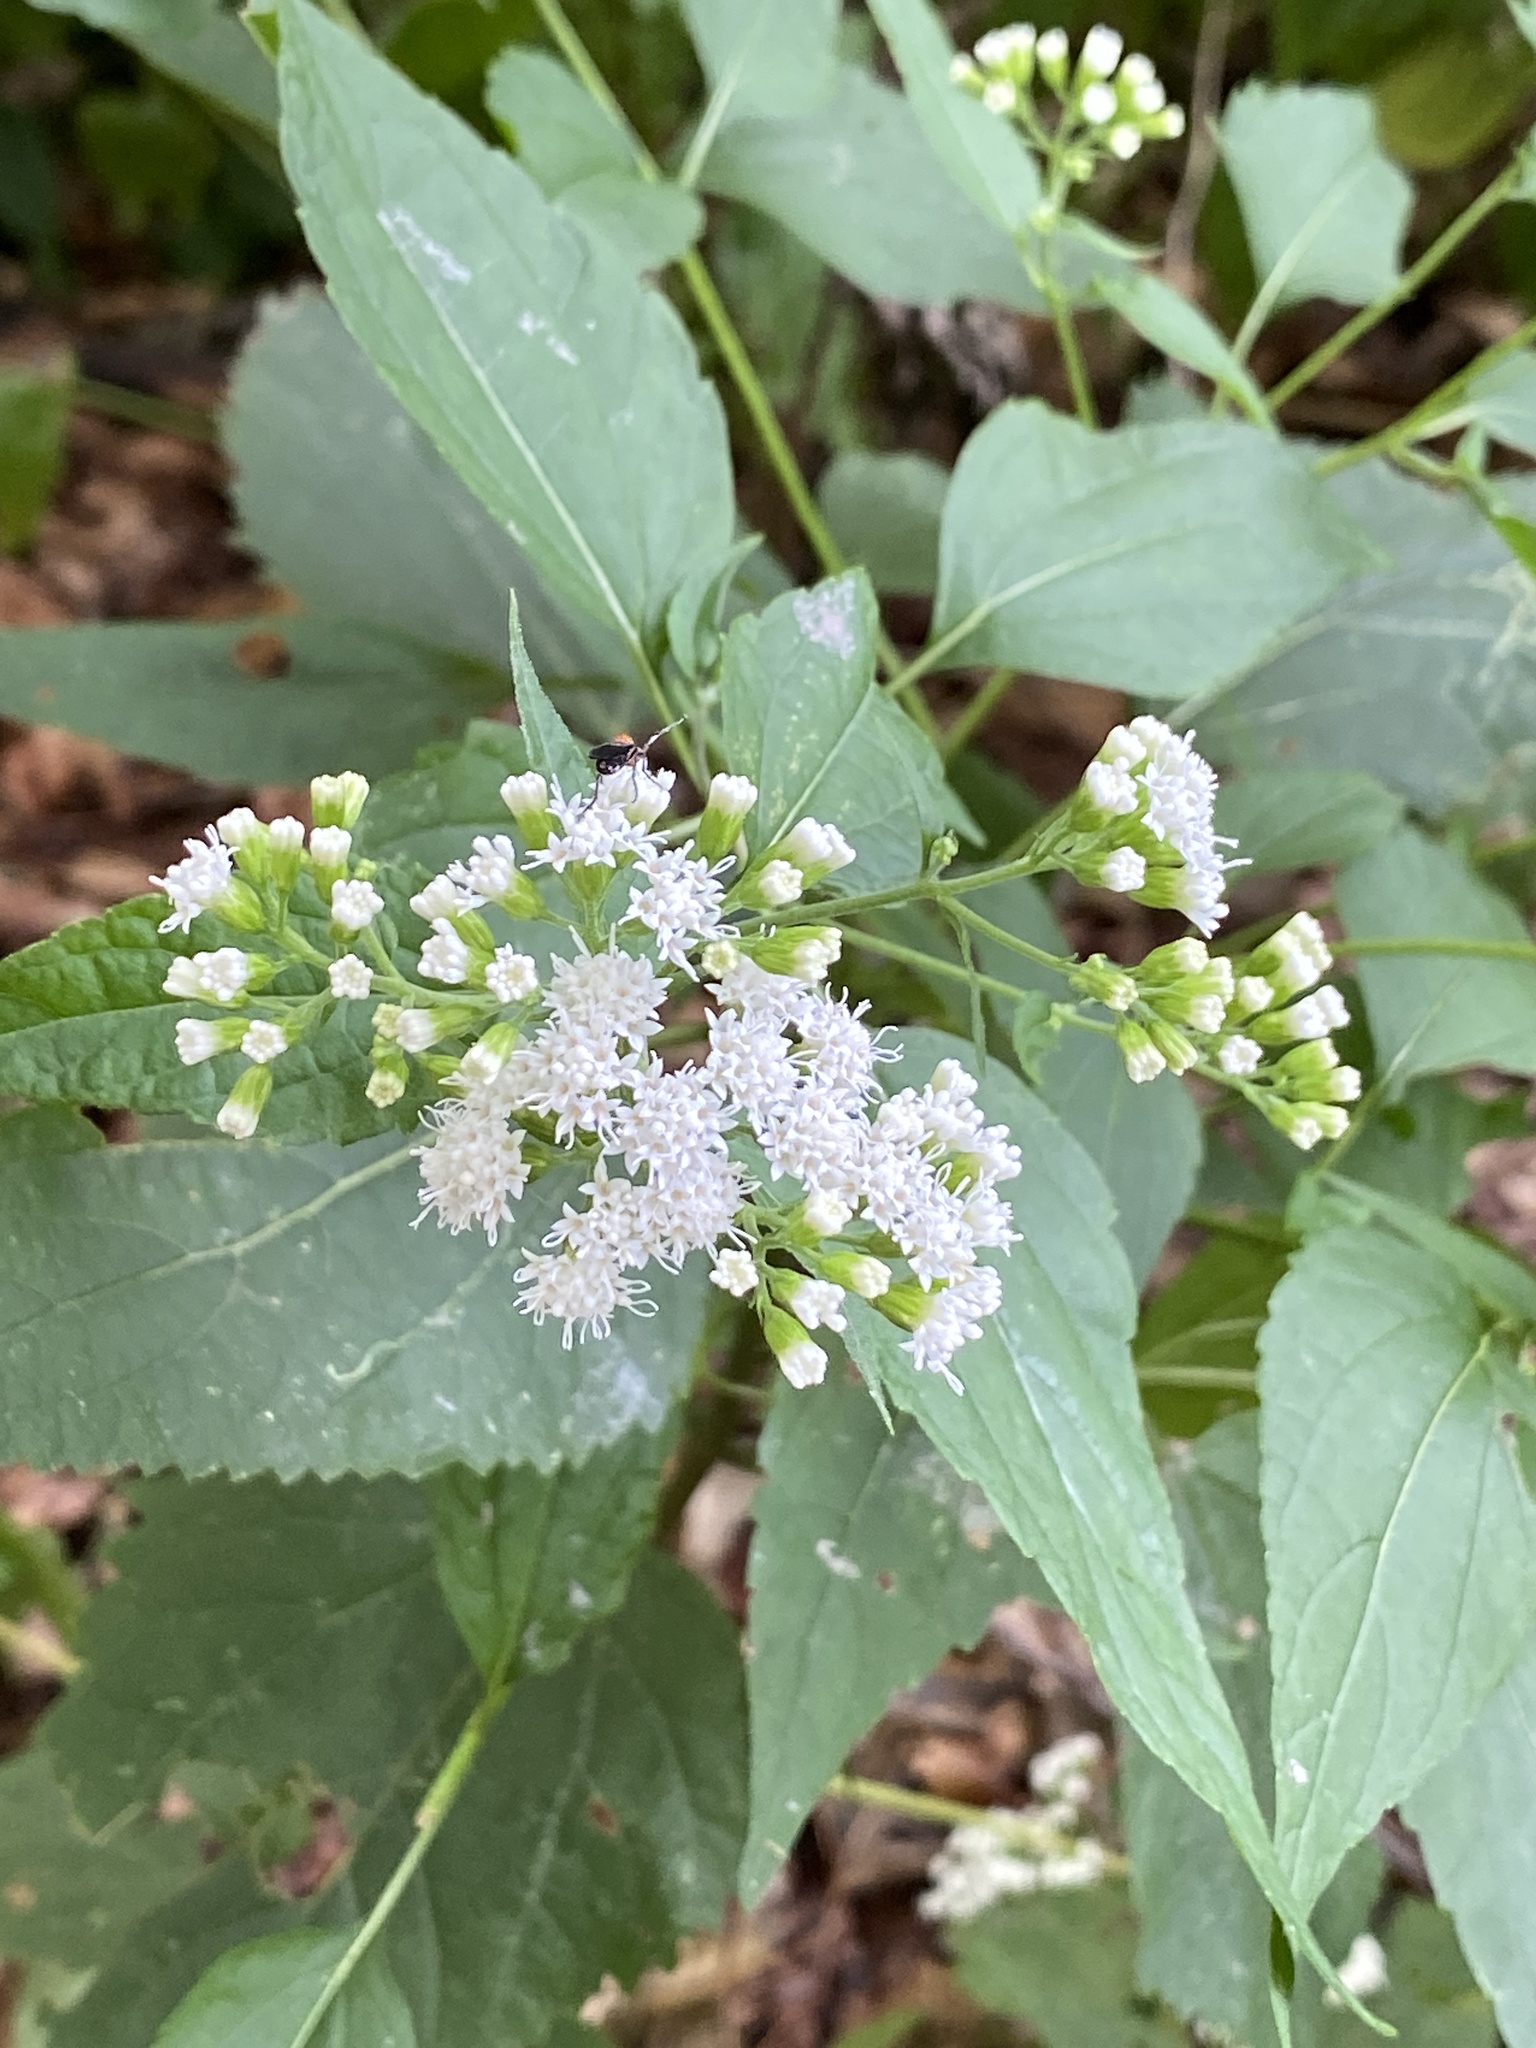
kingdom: Plantae
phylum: Tracheophyta
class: Magnoliopsida
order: Asterales
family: Asteraceae
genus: Ageratina
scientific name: Ageratina altissima
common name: White snakeroot
